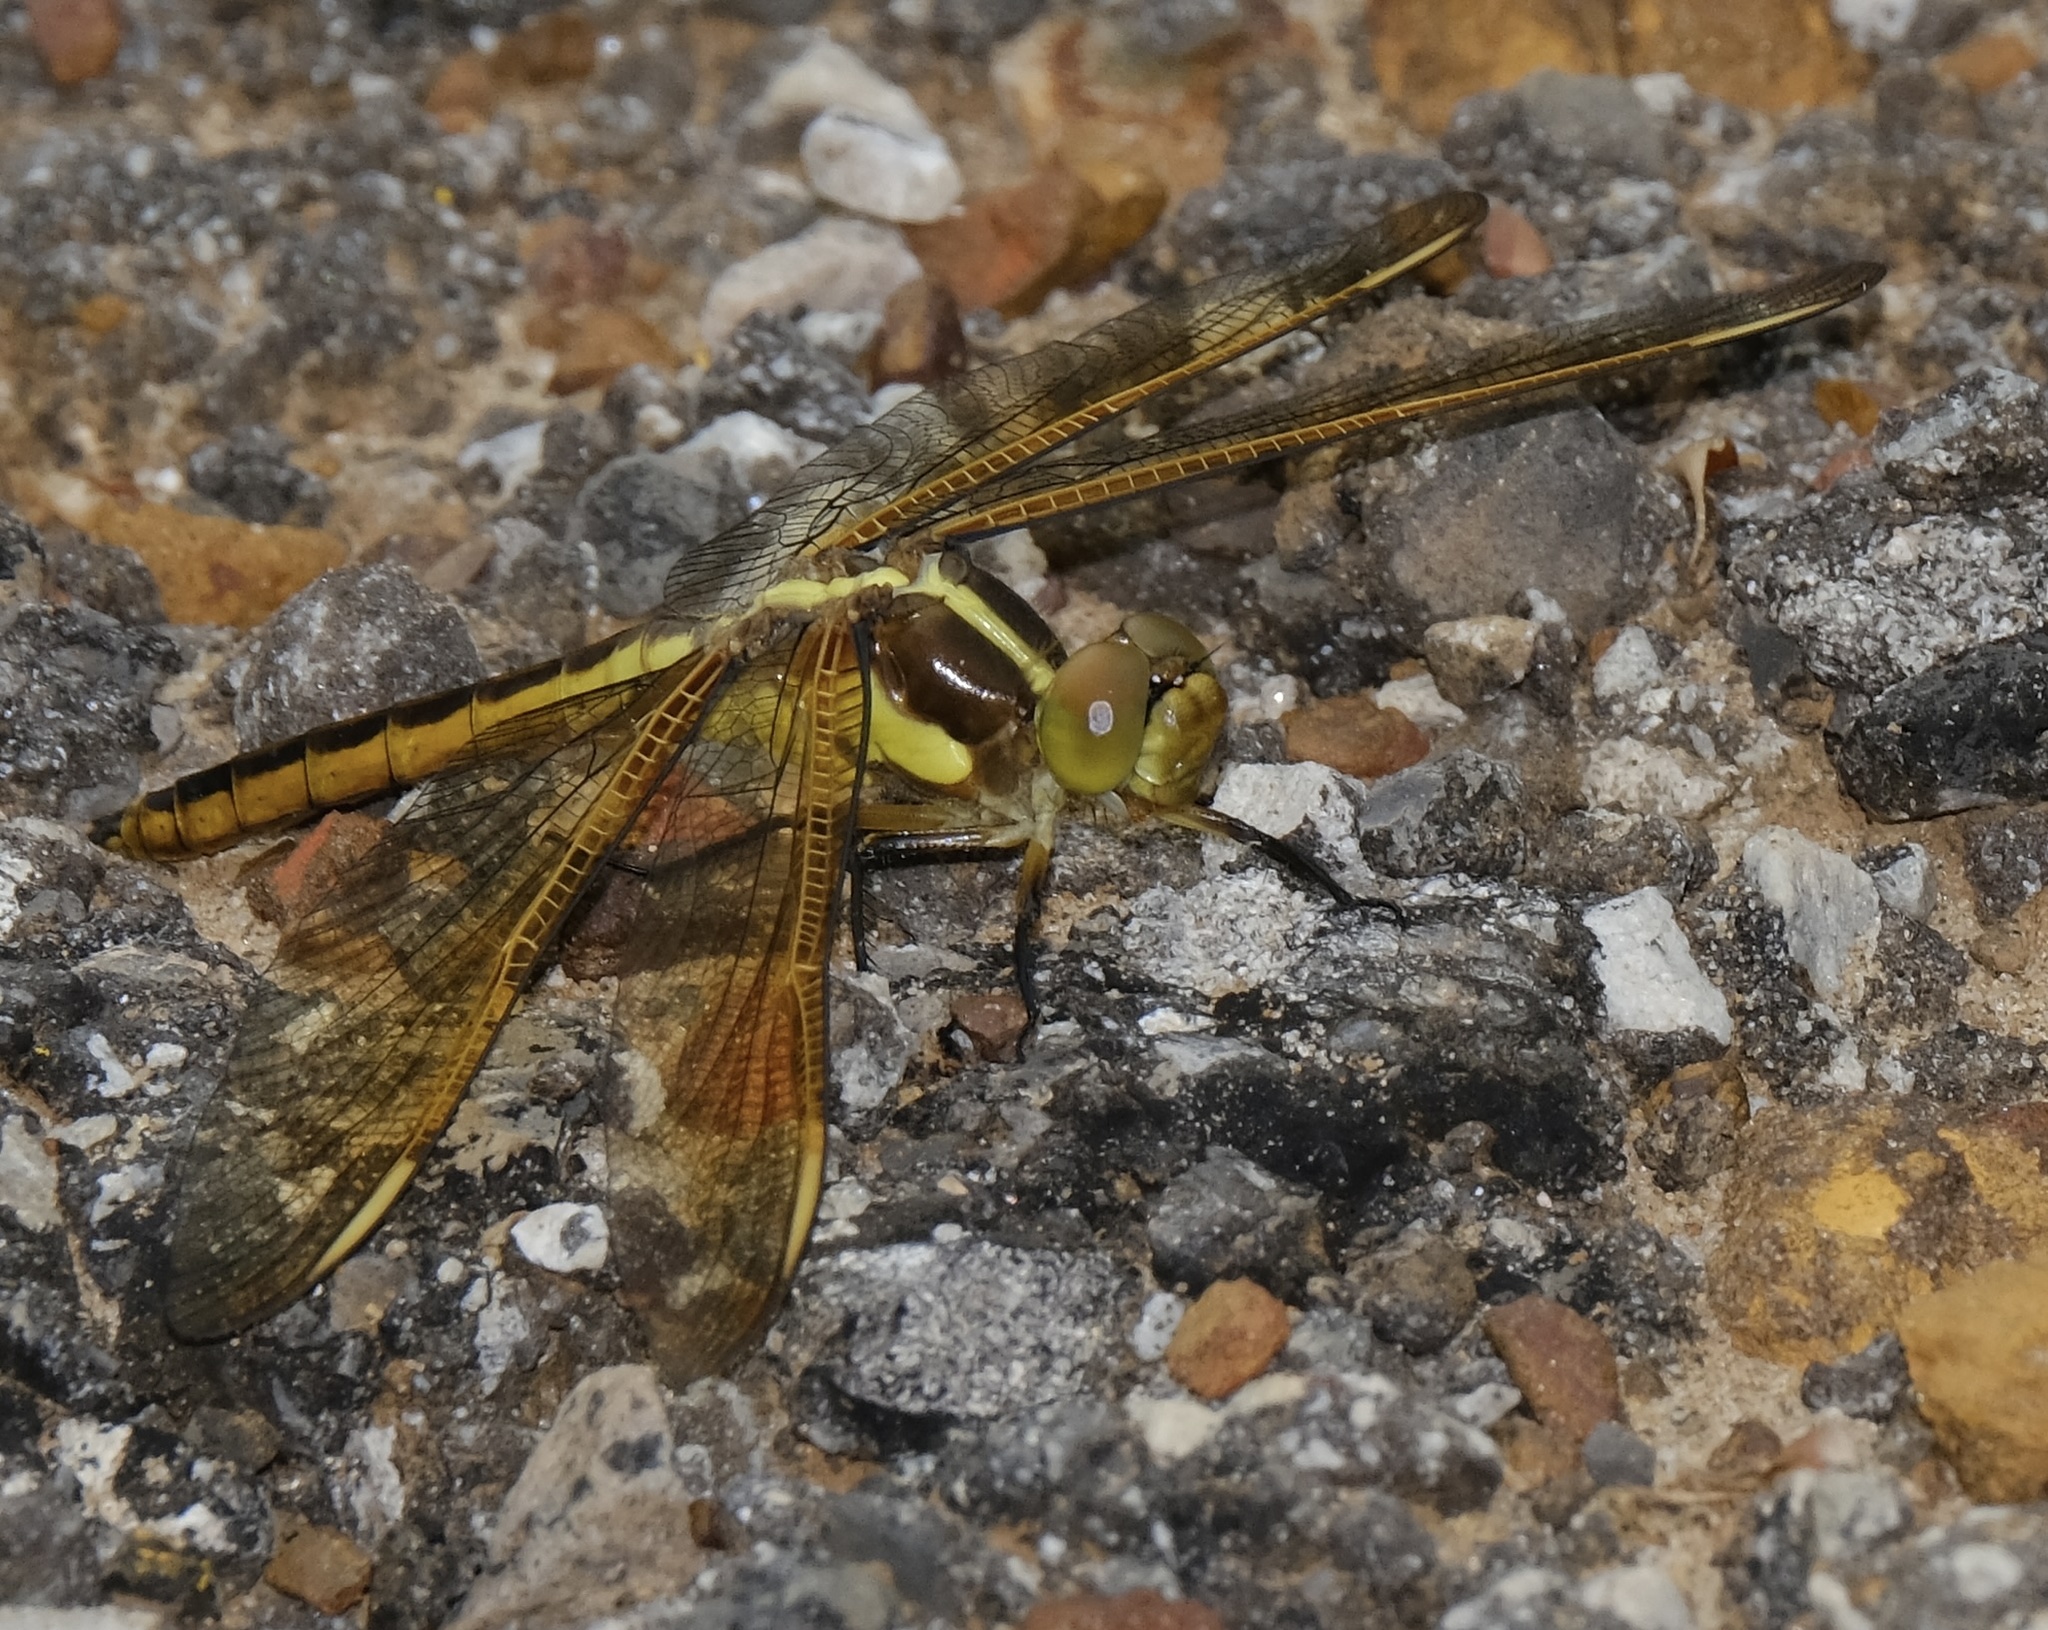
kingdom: Animalia
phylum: Arthropoda
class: Insecta
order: Odonata
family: Libellulidae
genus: Libellula
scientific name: Libellula flavida
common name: Yellow-sided skimmer
